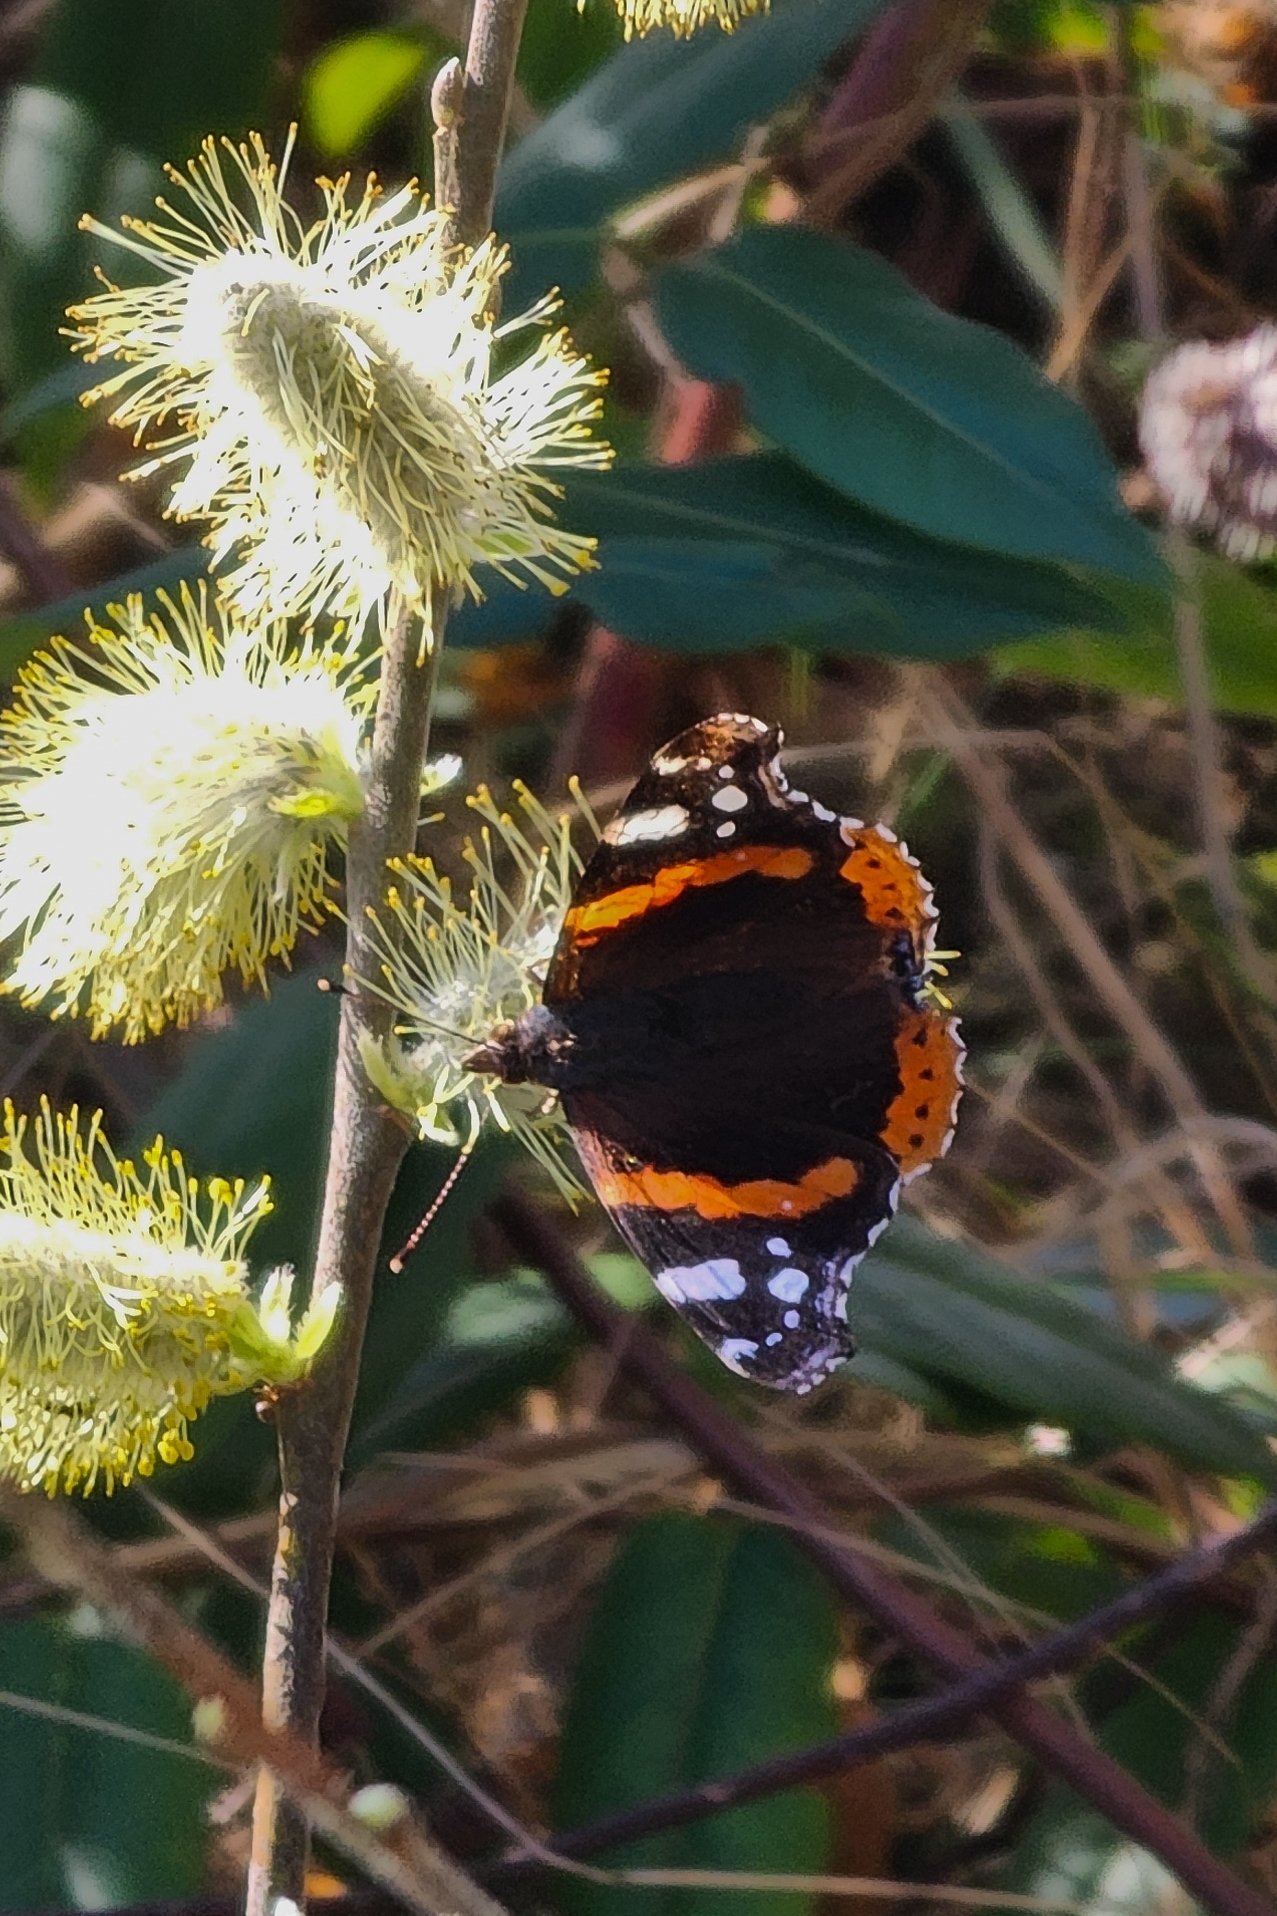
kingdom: Animalia
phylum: Arthropoda
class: Insecta
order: Lepidoptera
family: Nymphalidae
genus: Vanessa
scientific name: Vanessa atalanta
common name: Red admiral
